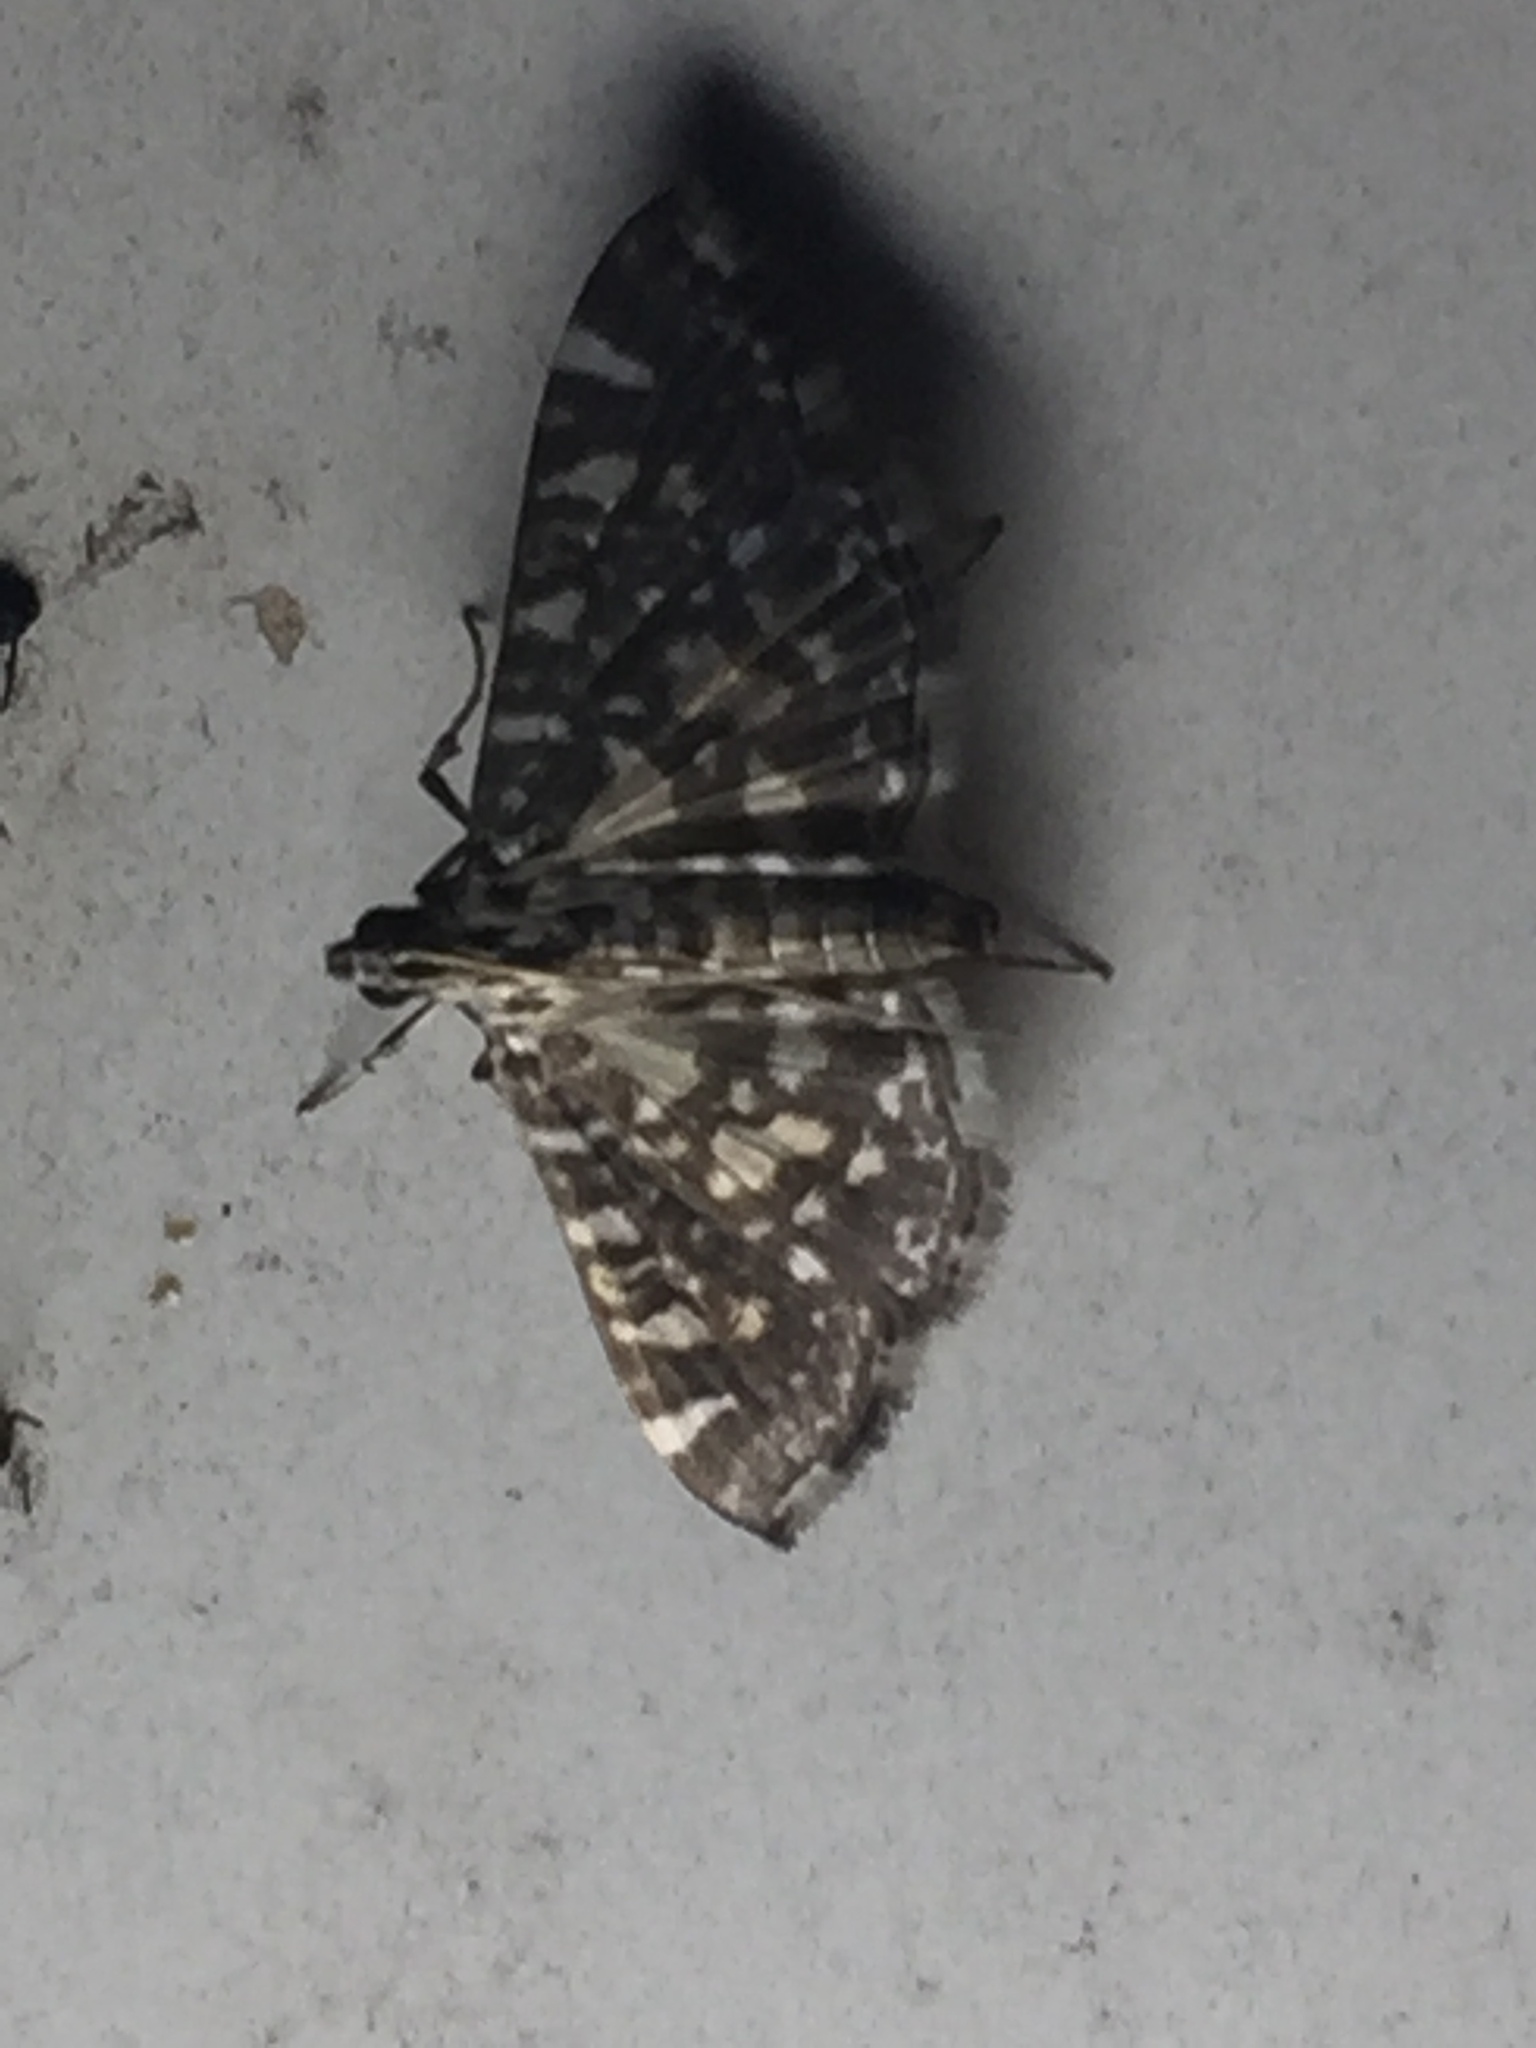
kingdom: Animalia
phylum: Arthropoda
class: Insecta
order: Lepidoptera
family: Crambidae
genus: Glyphodes
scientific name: Glyphodes onychinalis
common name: Swan plant moth
